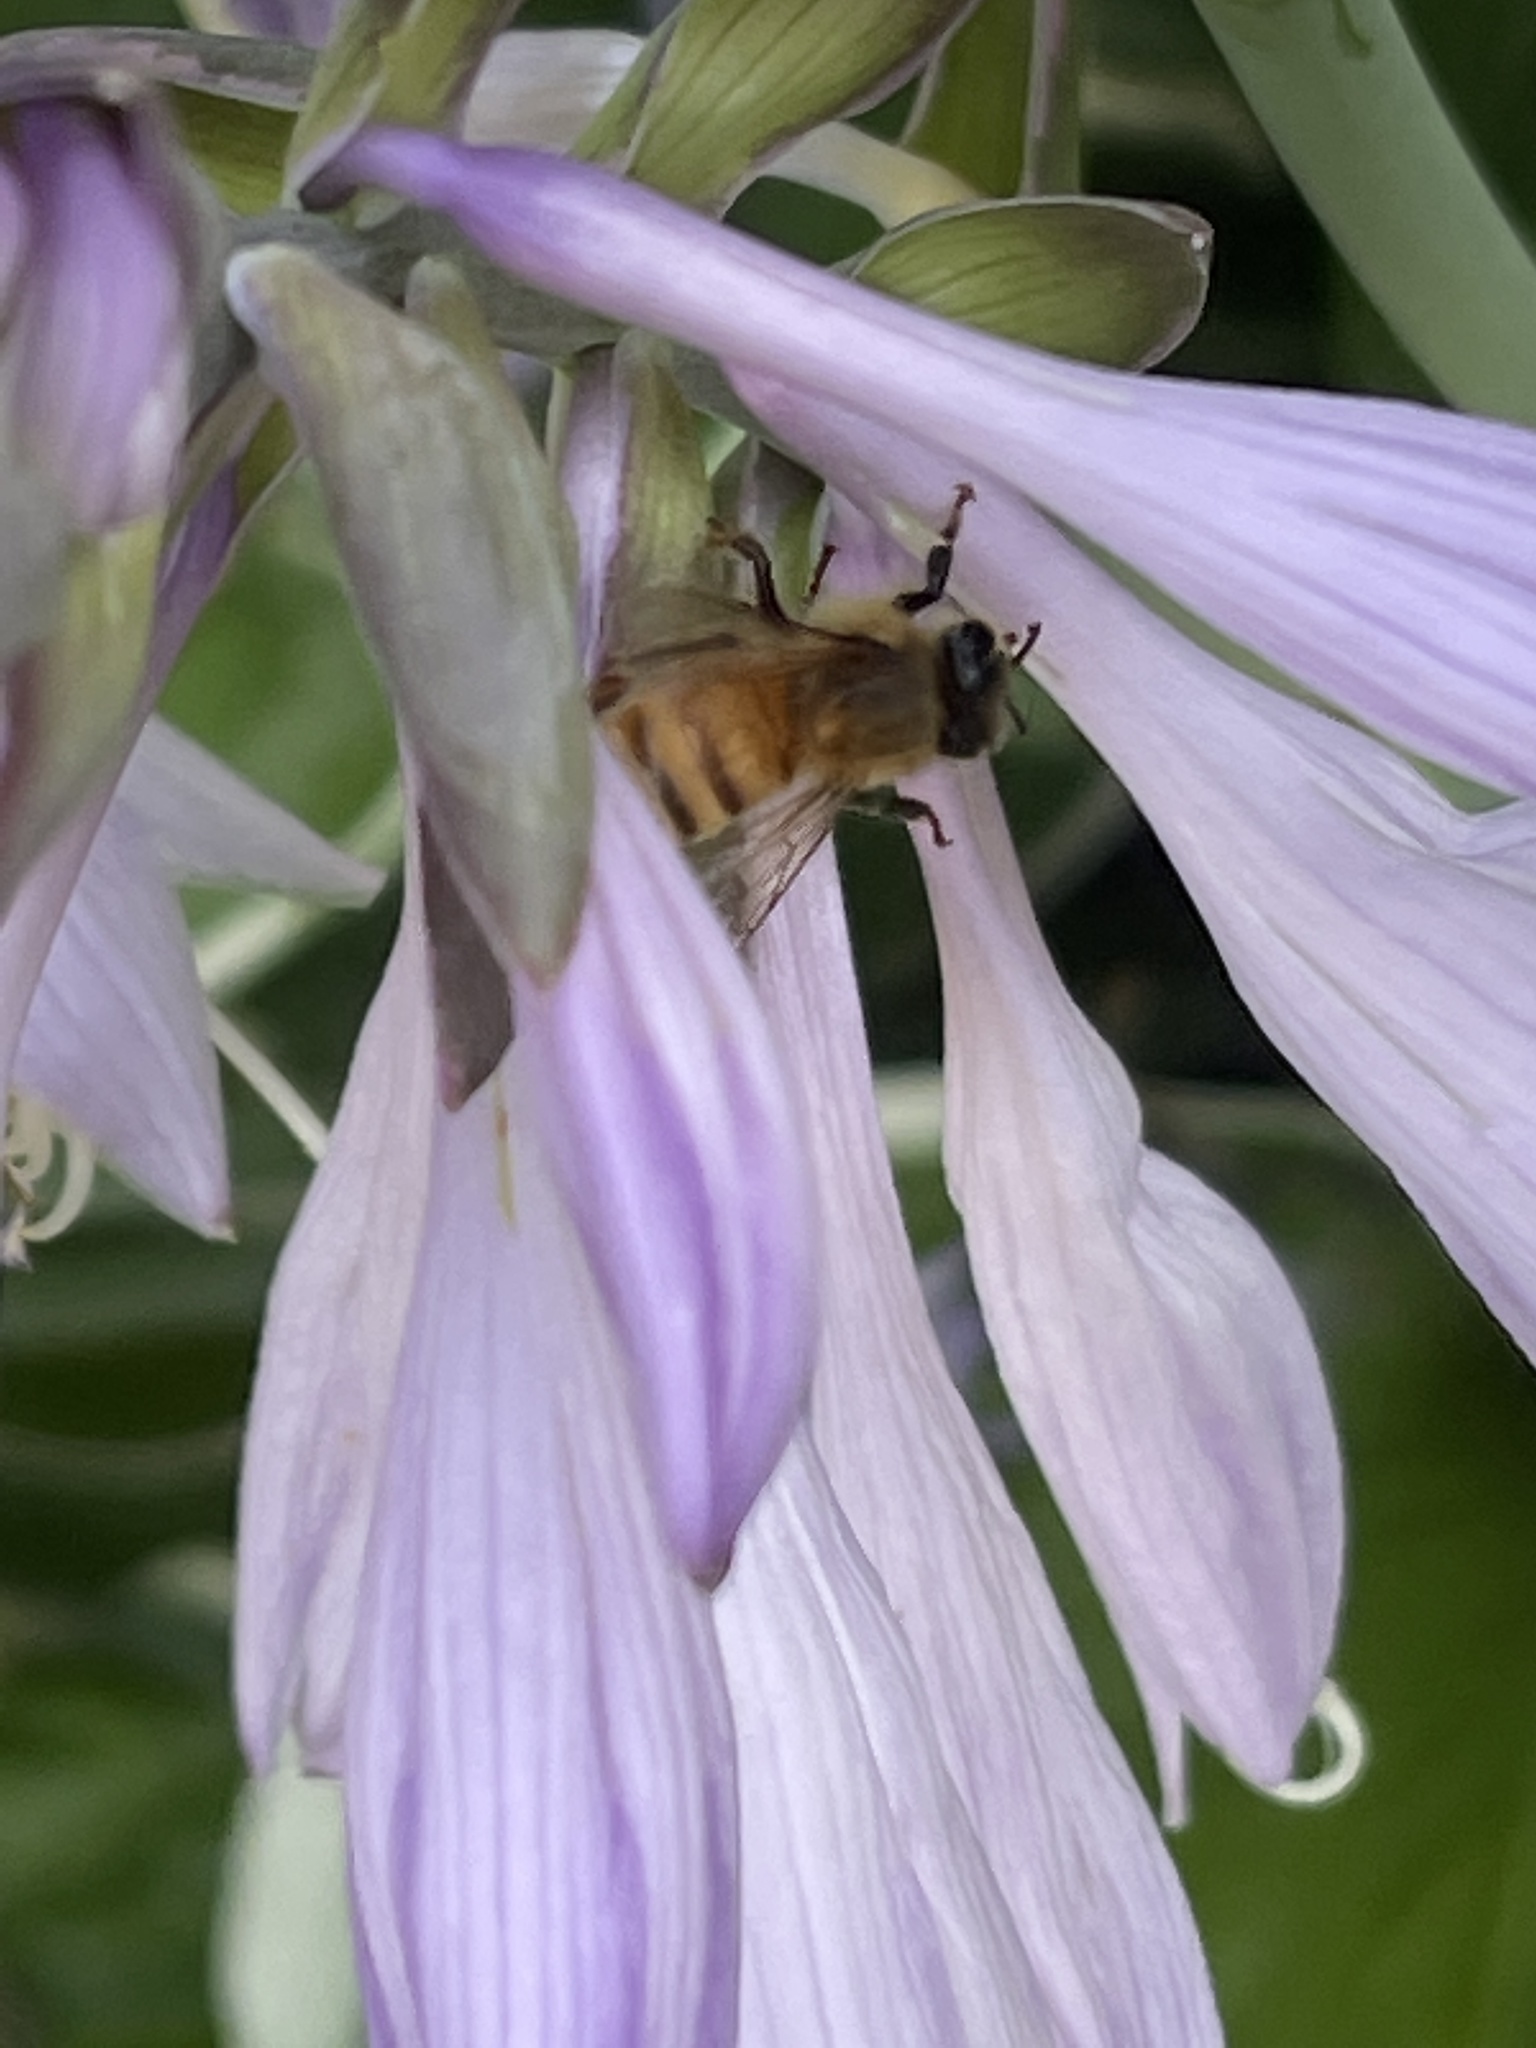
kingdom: Animalia
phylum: Arthropoda
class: Insecta
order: Hymenoptera
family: Apidae
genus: Apis
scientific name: Apis mellifera
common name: Honey bee
